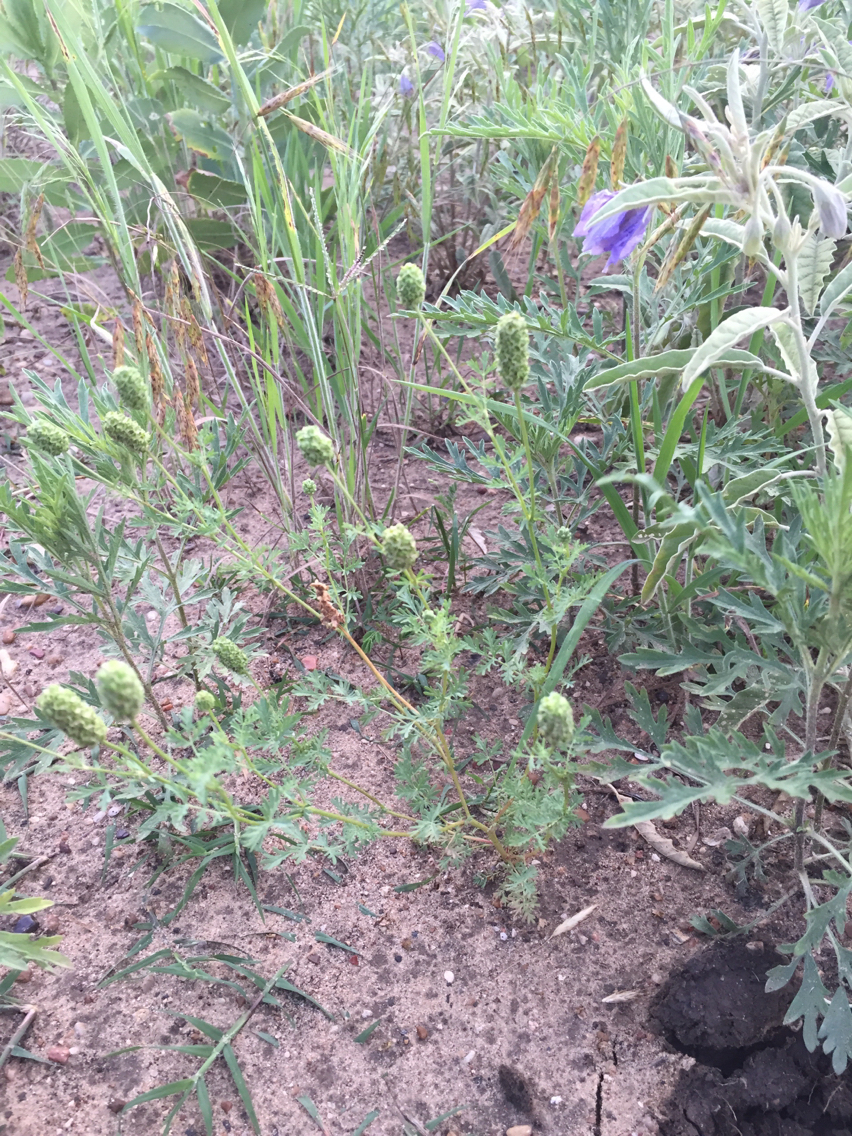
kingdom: Plantae
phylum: Tracheophyta
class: Magnoliopsida
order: Rosales
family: Rosaceae
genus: Poteridium
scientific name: Poteridium annuum
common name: Annual burnet
